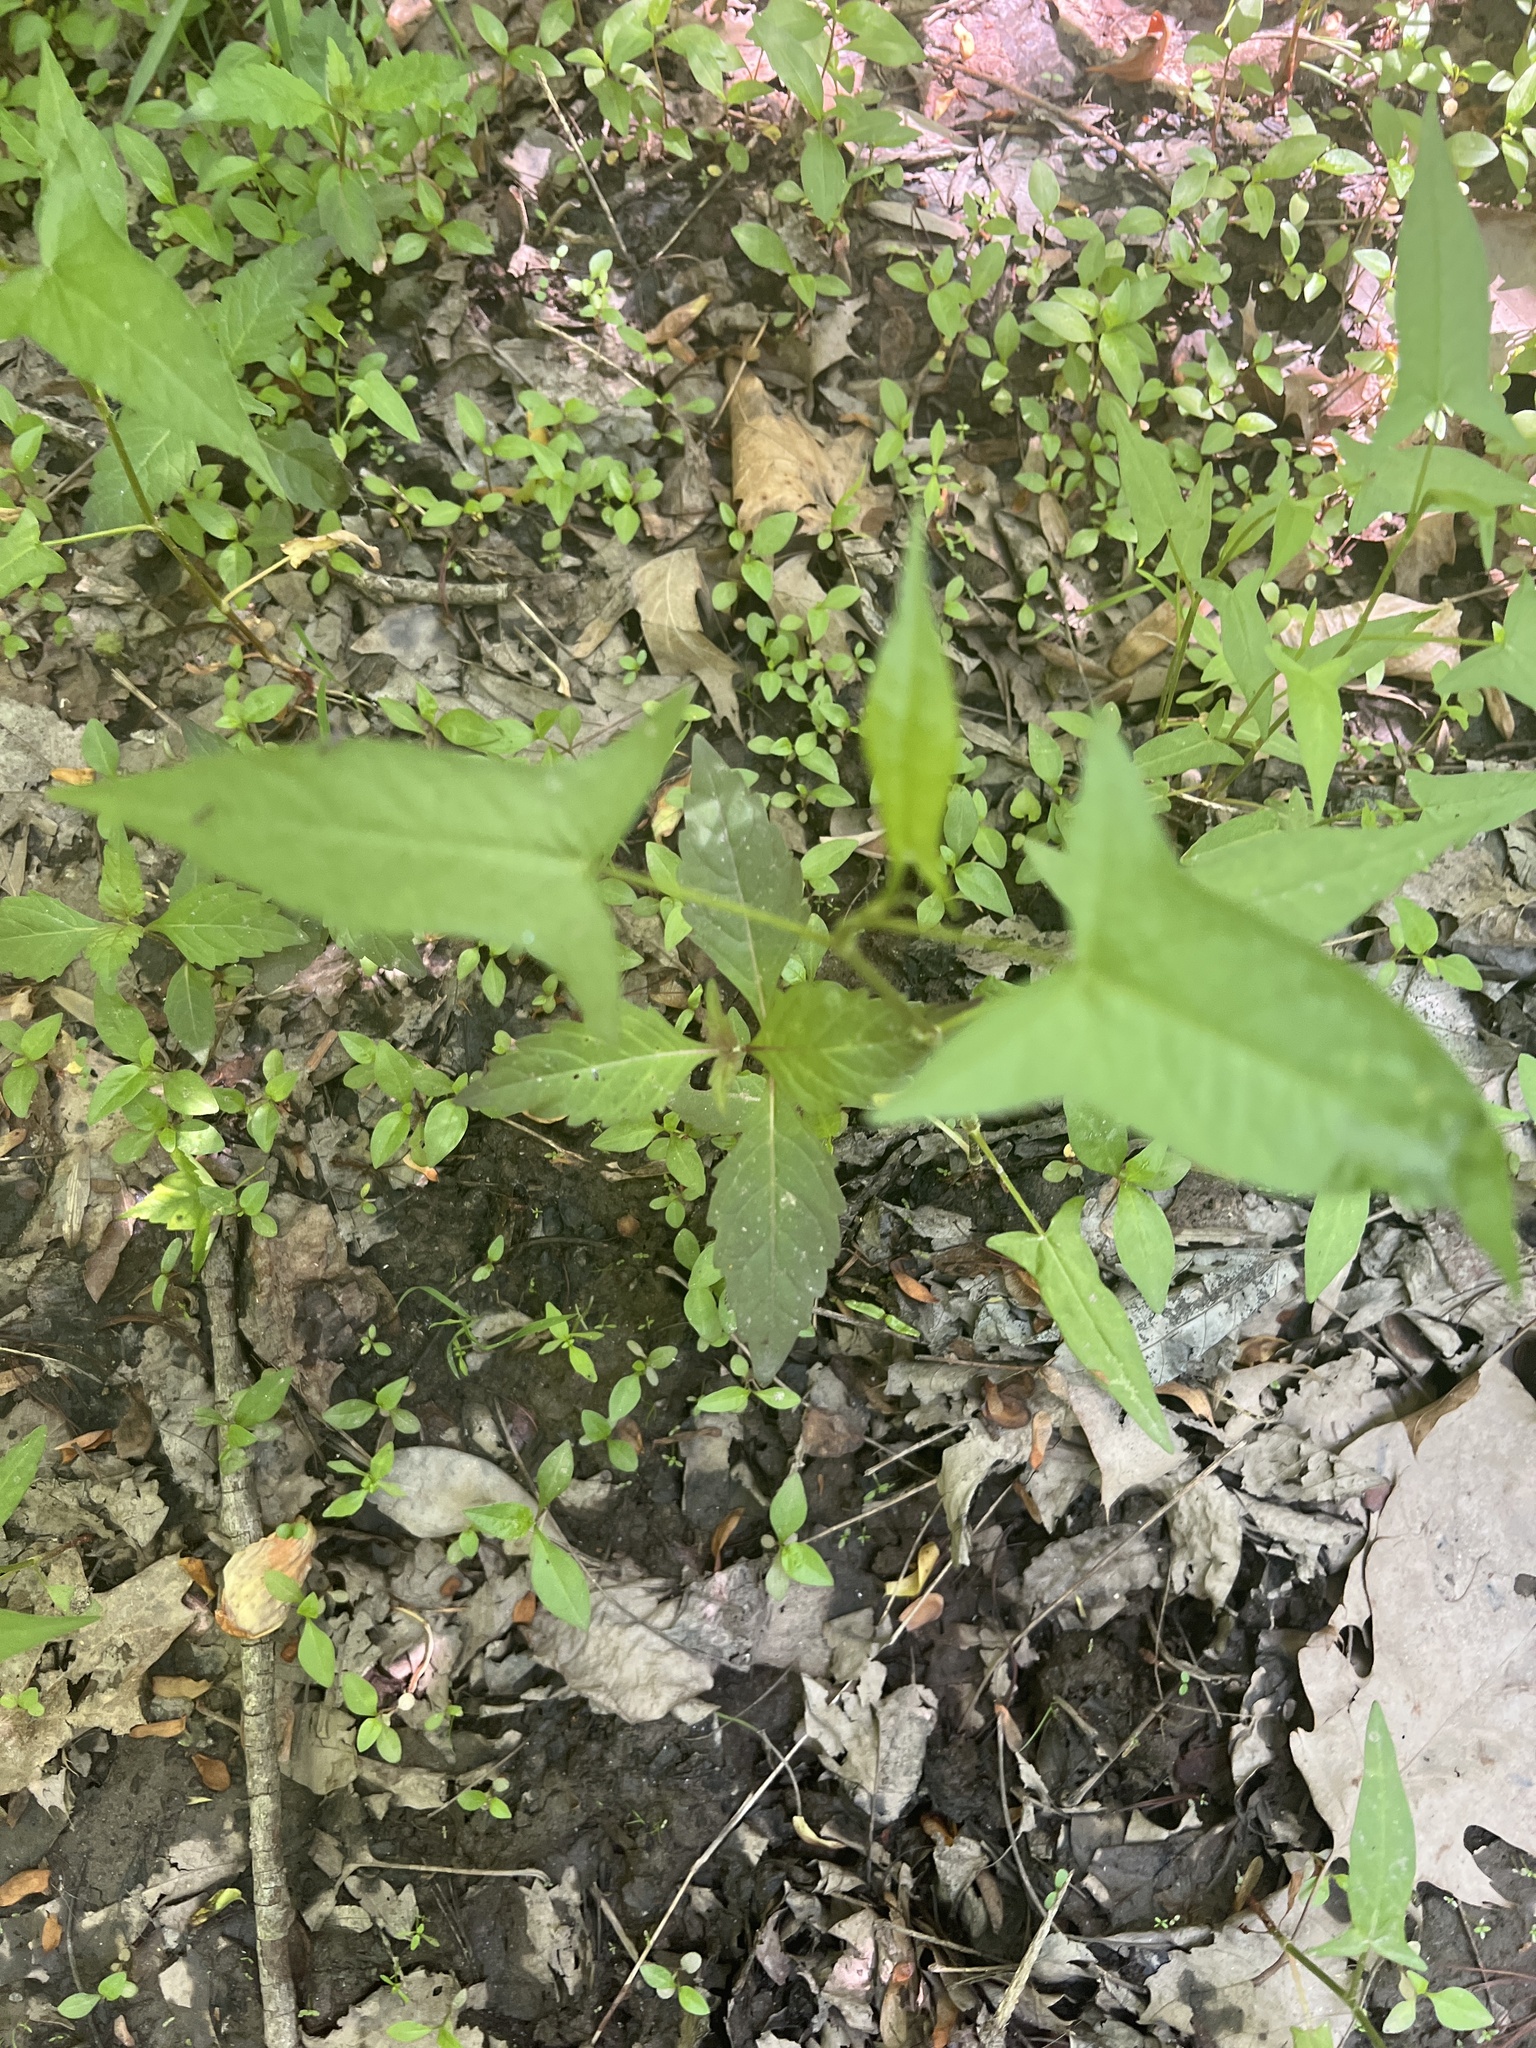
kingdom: Plantae
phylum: Tracheophyta
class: Magnoliopsida
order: Caryophyllales
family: Polygonaceae
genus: Persicaria
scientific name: Persicaria arifolia
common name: Halberd-leaved tear-thumb
